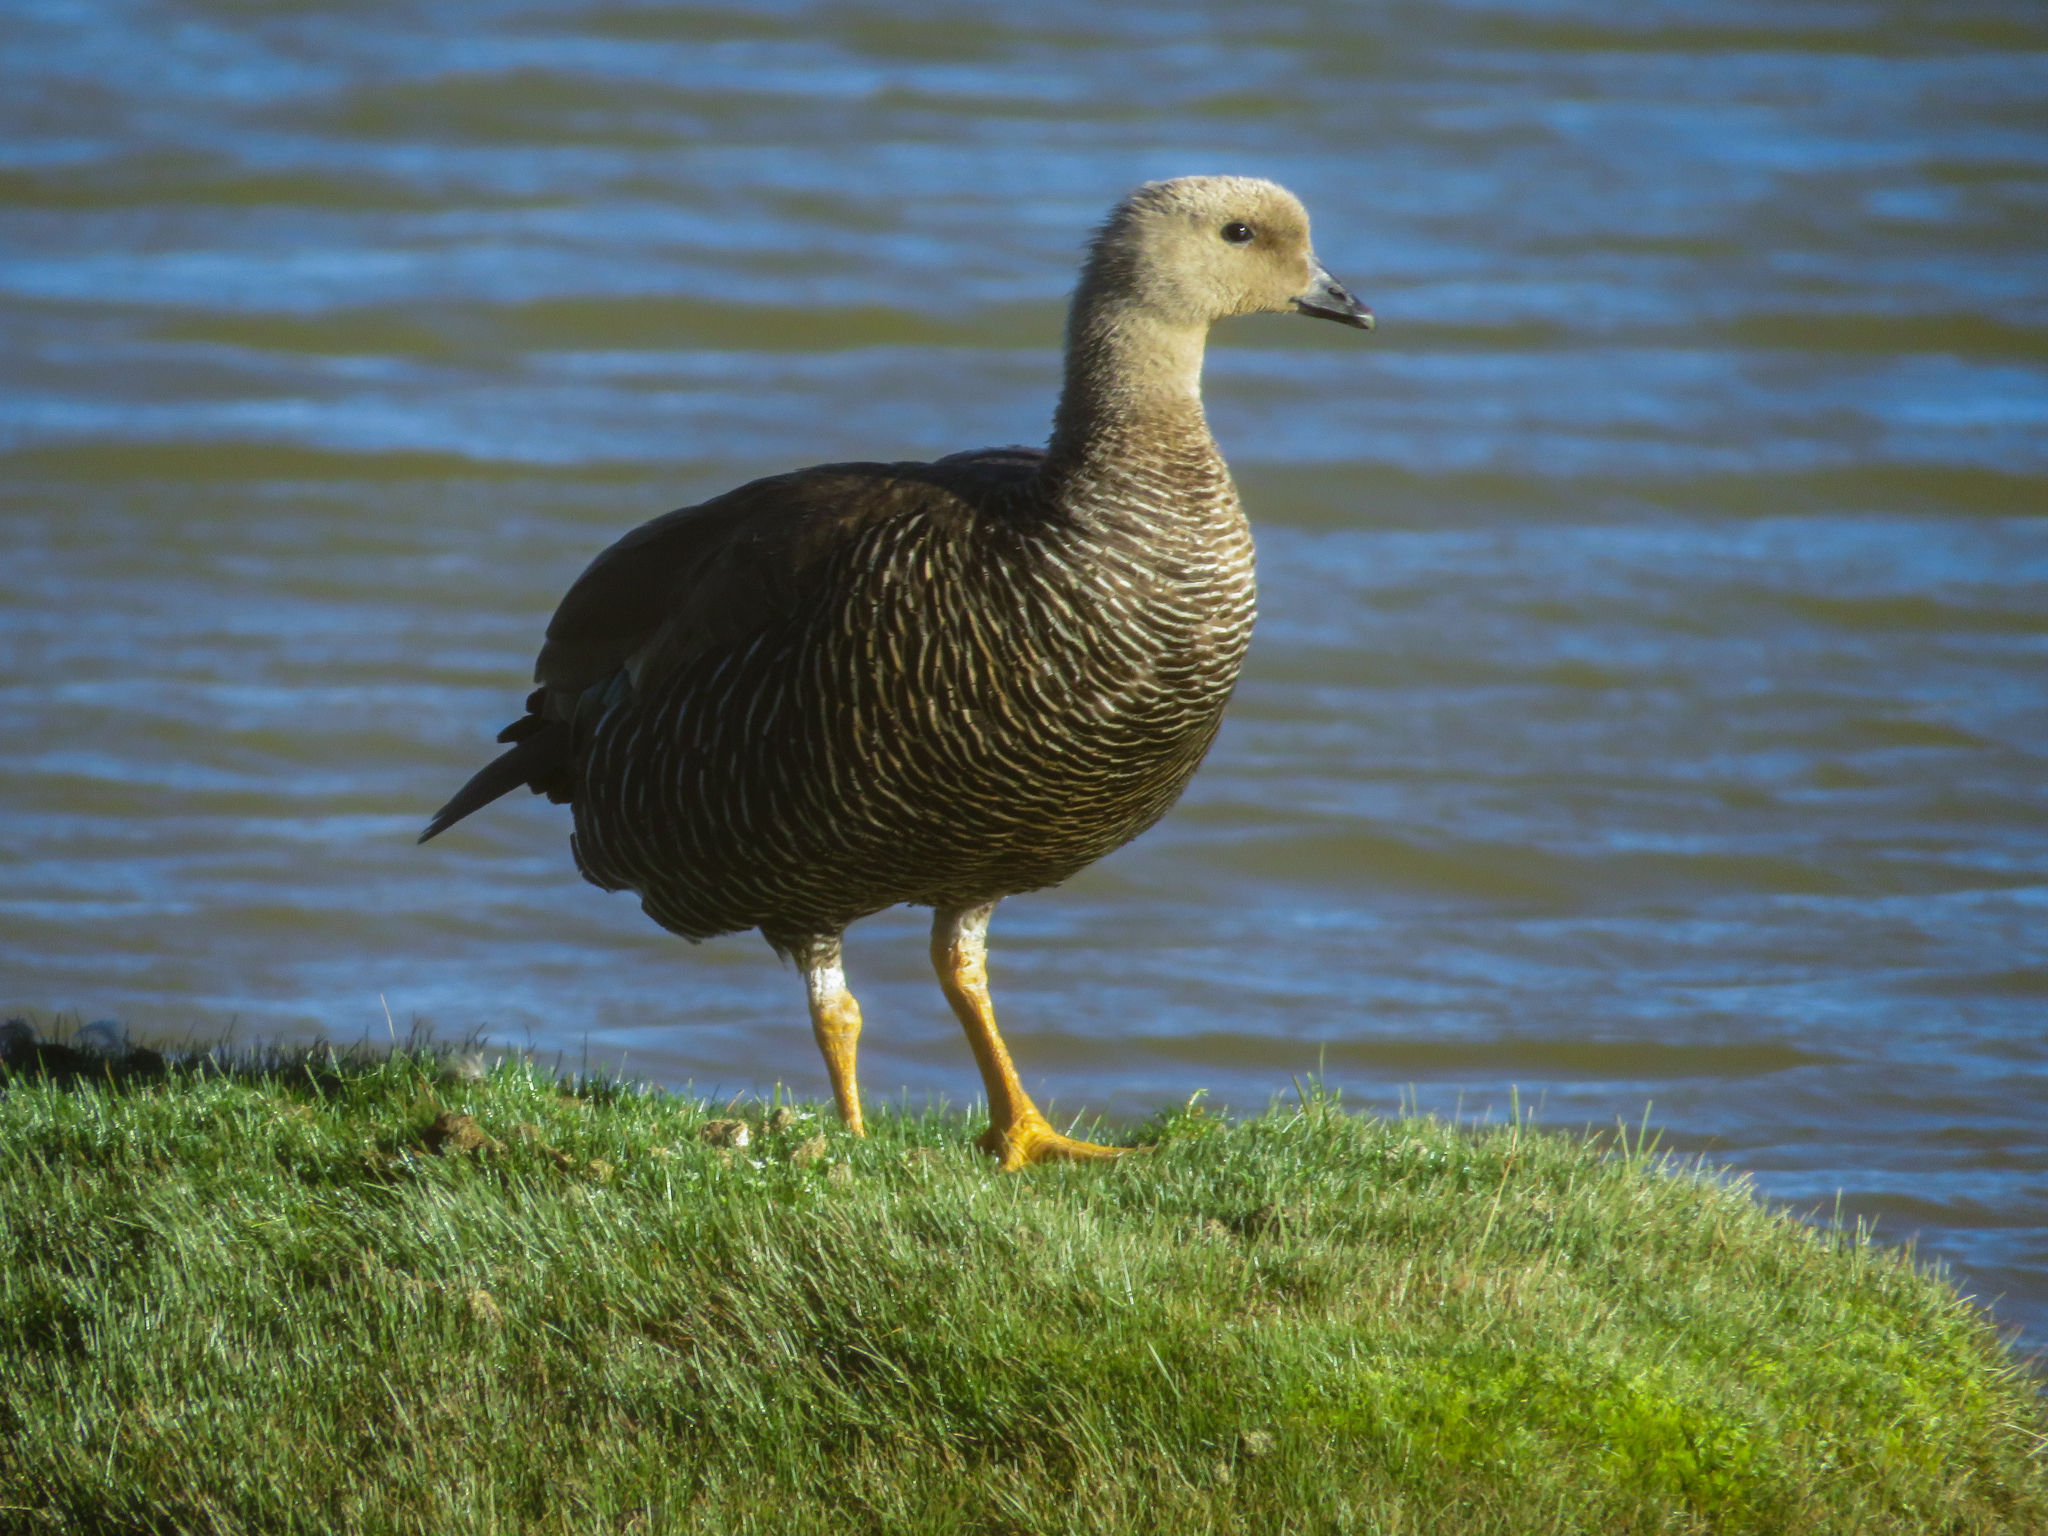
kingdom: Animalia
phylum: Chordata
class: Aves
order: Anseriformes
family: Anatidae
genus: Chloephaga
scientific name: Chloephaga picta
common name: Upland goose
